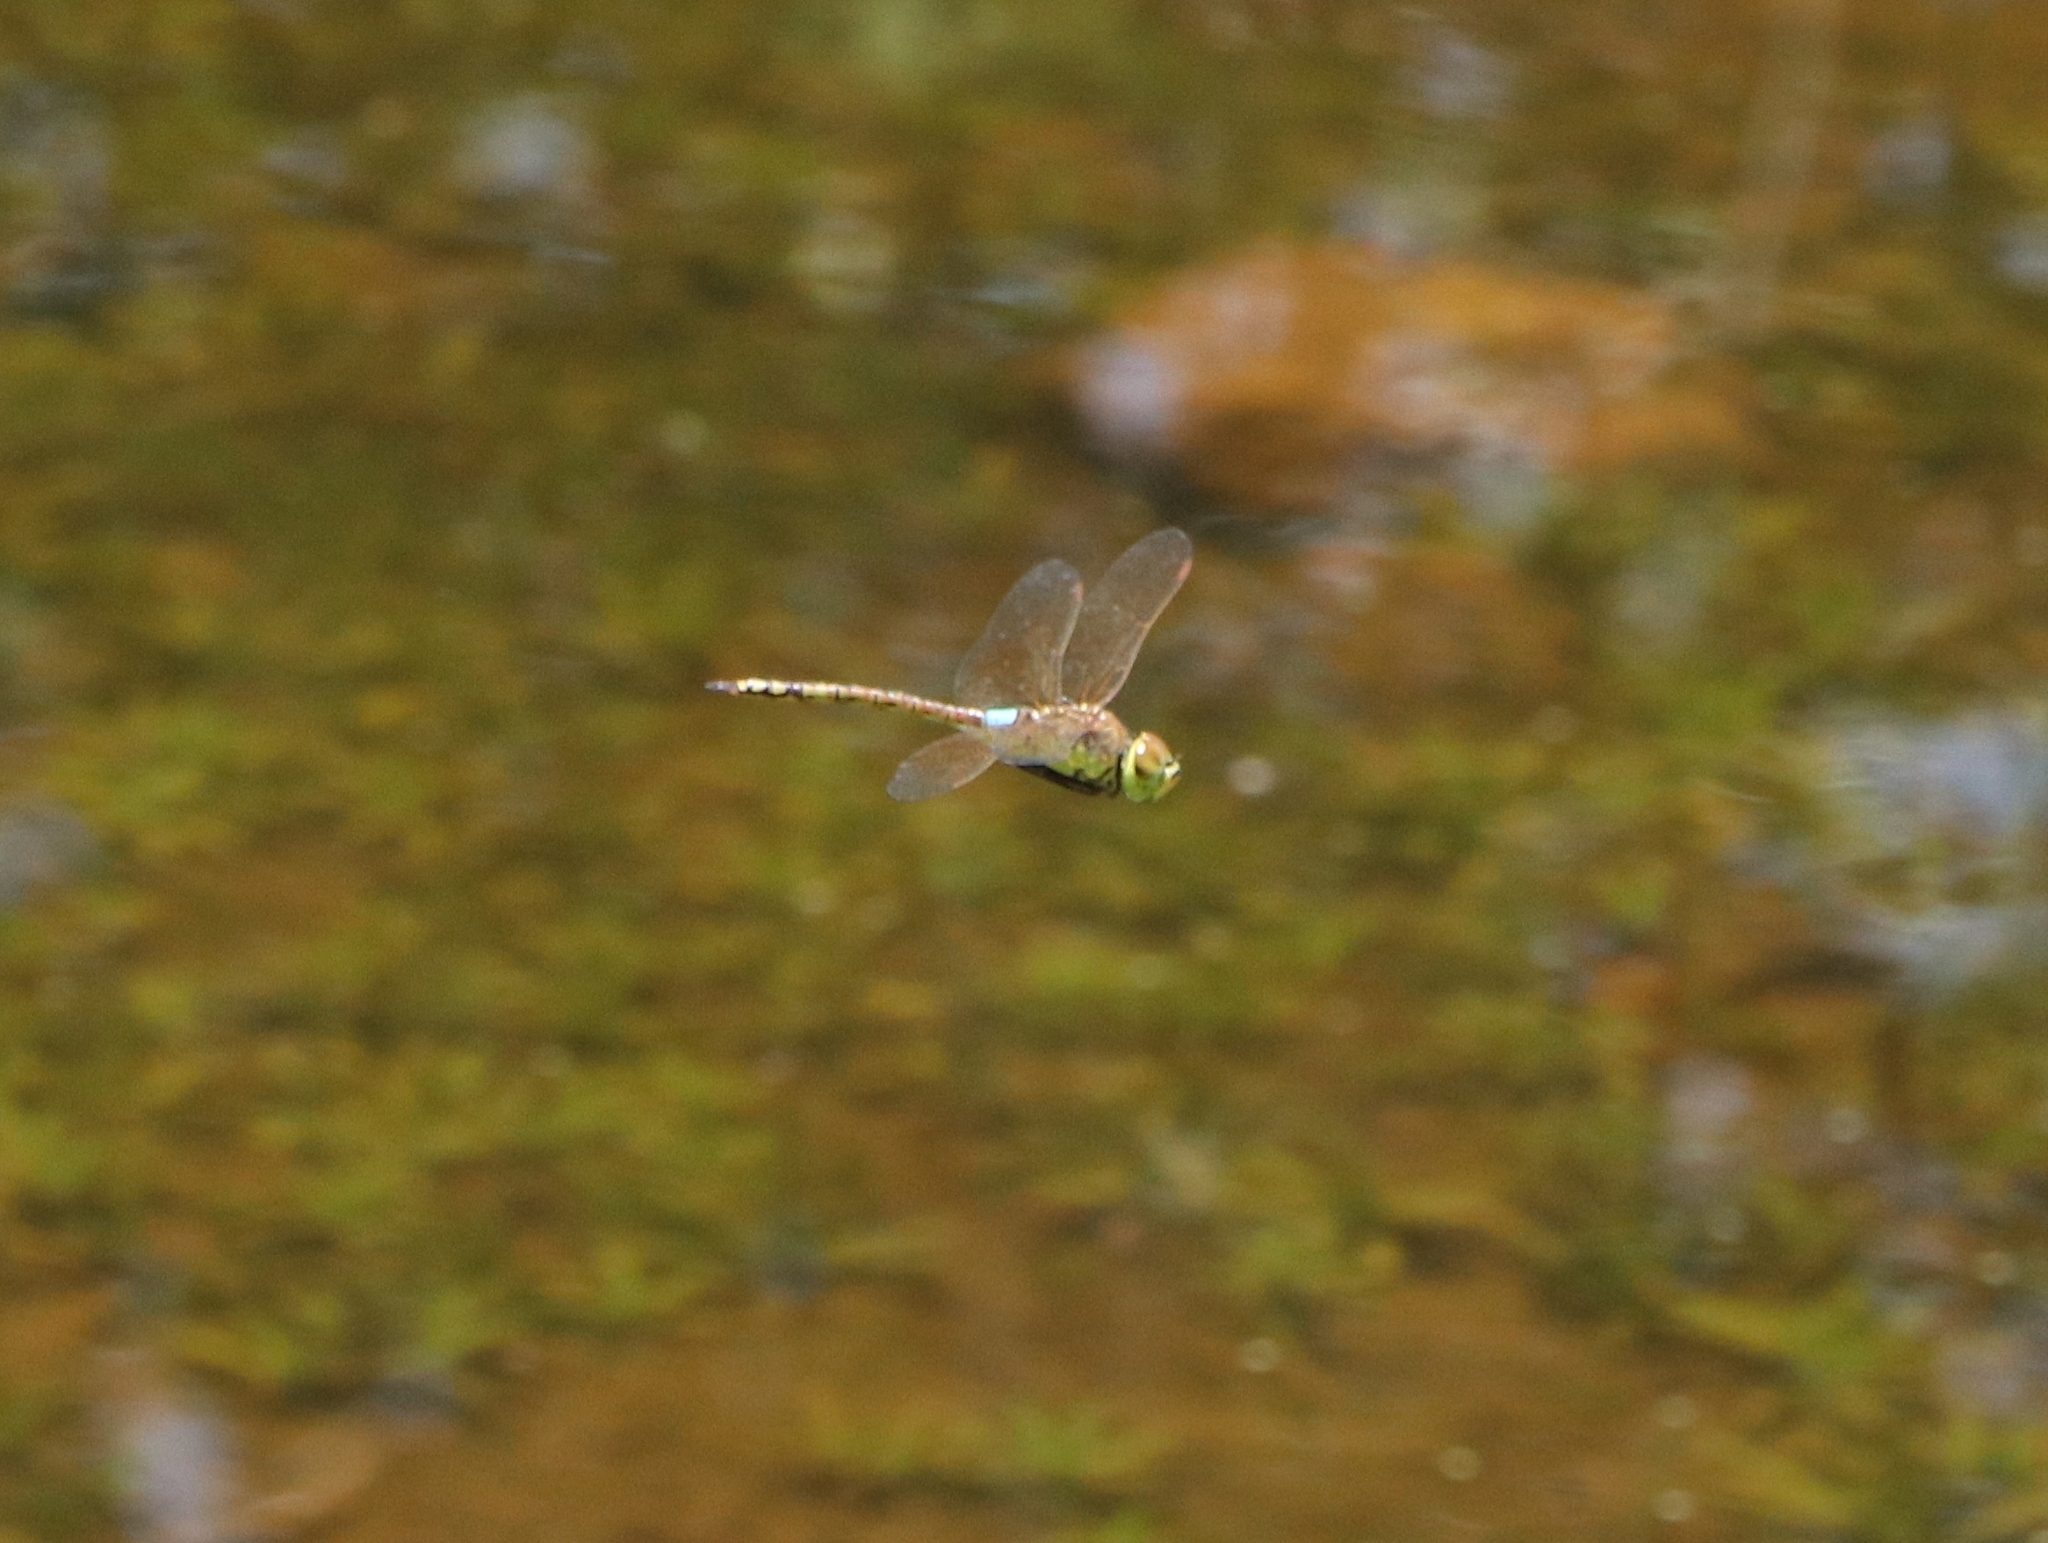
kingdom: Animalia
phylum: Arthropoda
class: Insecta
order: Odonata
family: Aeshnidae
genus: Anax
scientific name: Anax ephippiger
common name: Vagrant emperor
